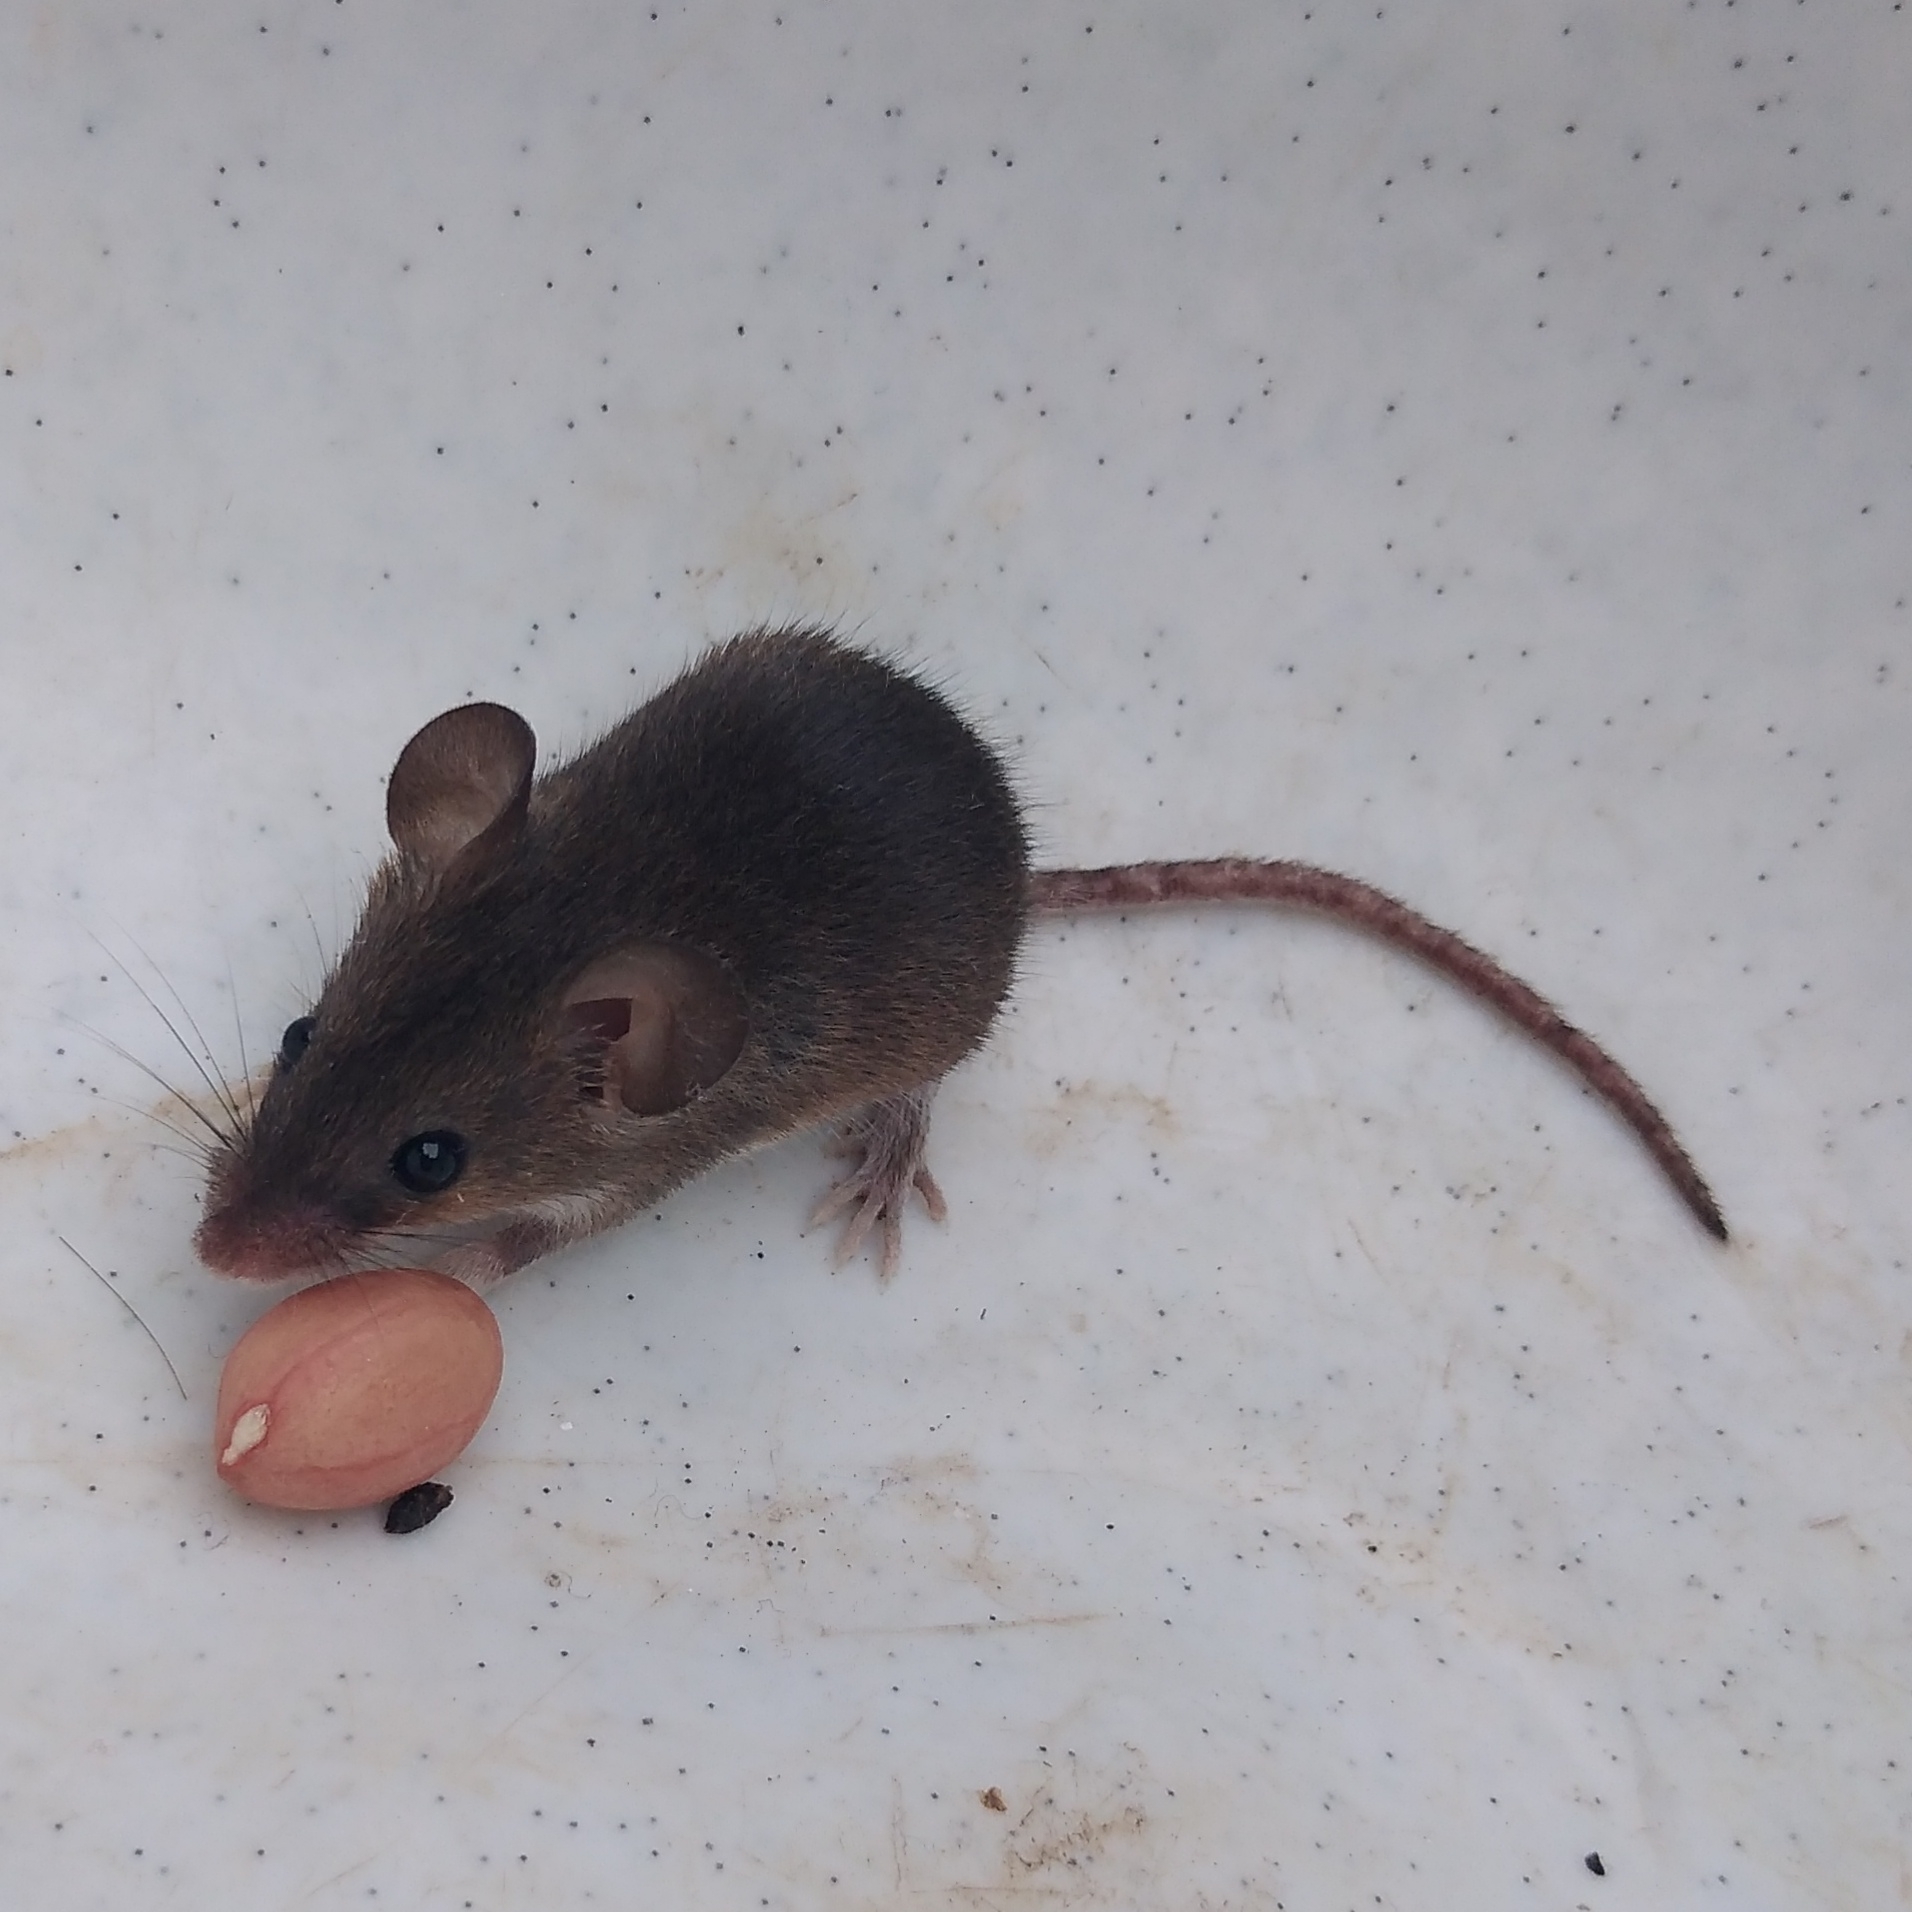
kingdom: Animalia
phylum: Chordata
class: Mammalia
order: Rodentia
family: Muridae
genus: Mus
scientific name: Mus minutoides
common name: Southern african pygmy mouse
